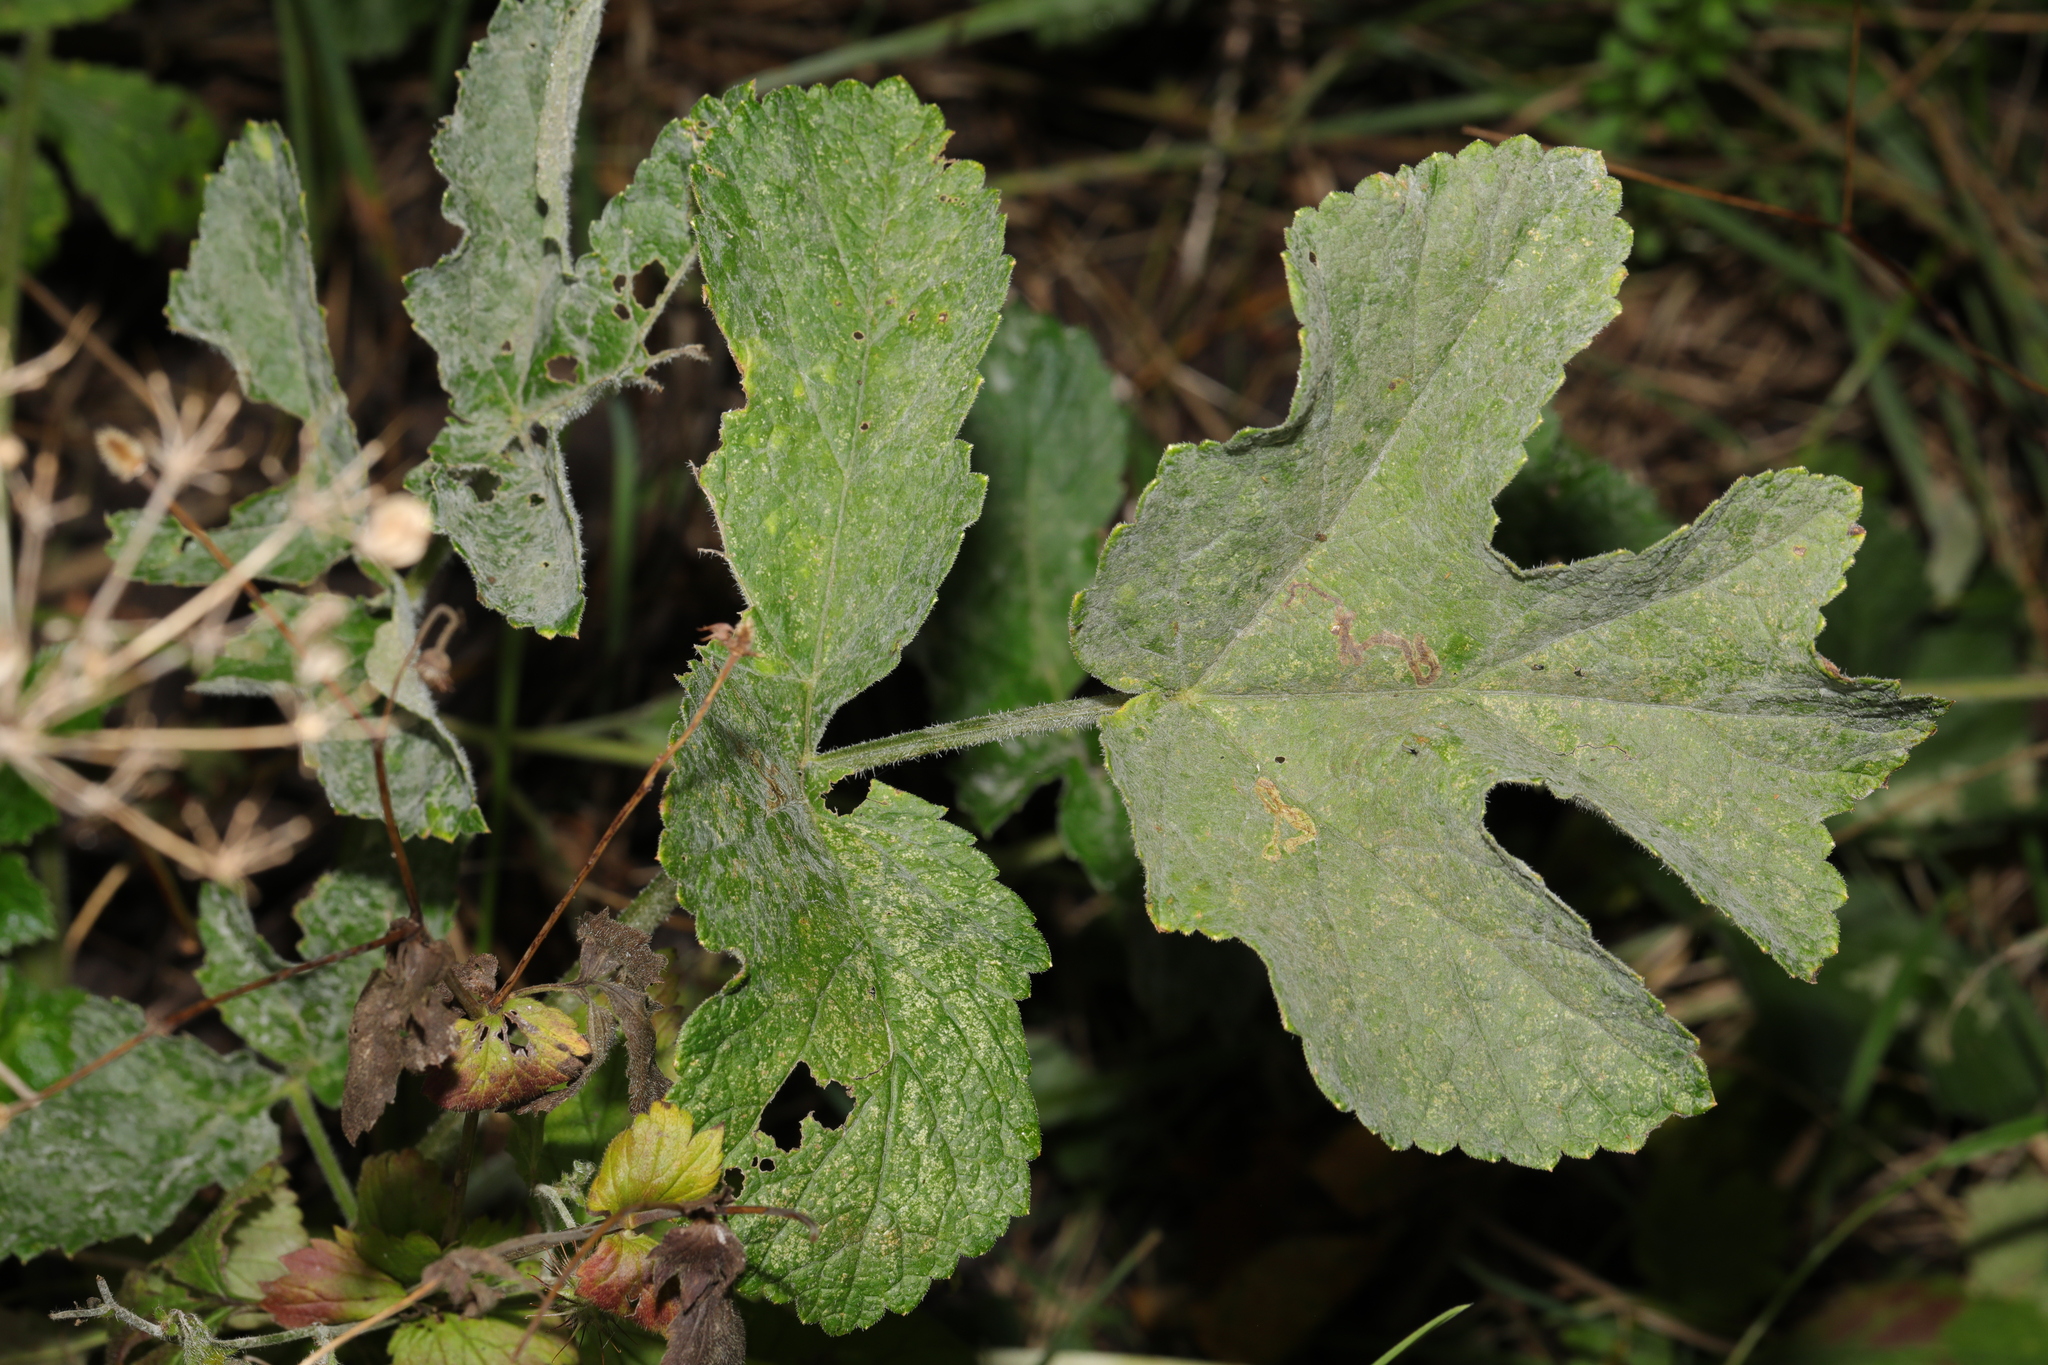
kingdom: Fungi
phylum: Ascomycota
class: Leotiomycetes
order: Helotiales
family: Erysiphaceae
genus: Erysiphe
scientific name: Erysiphe heraclei
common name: Umbellifer mildew
